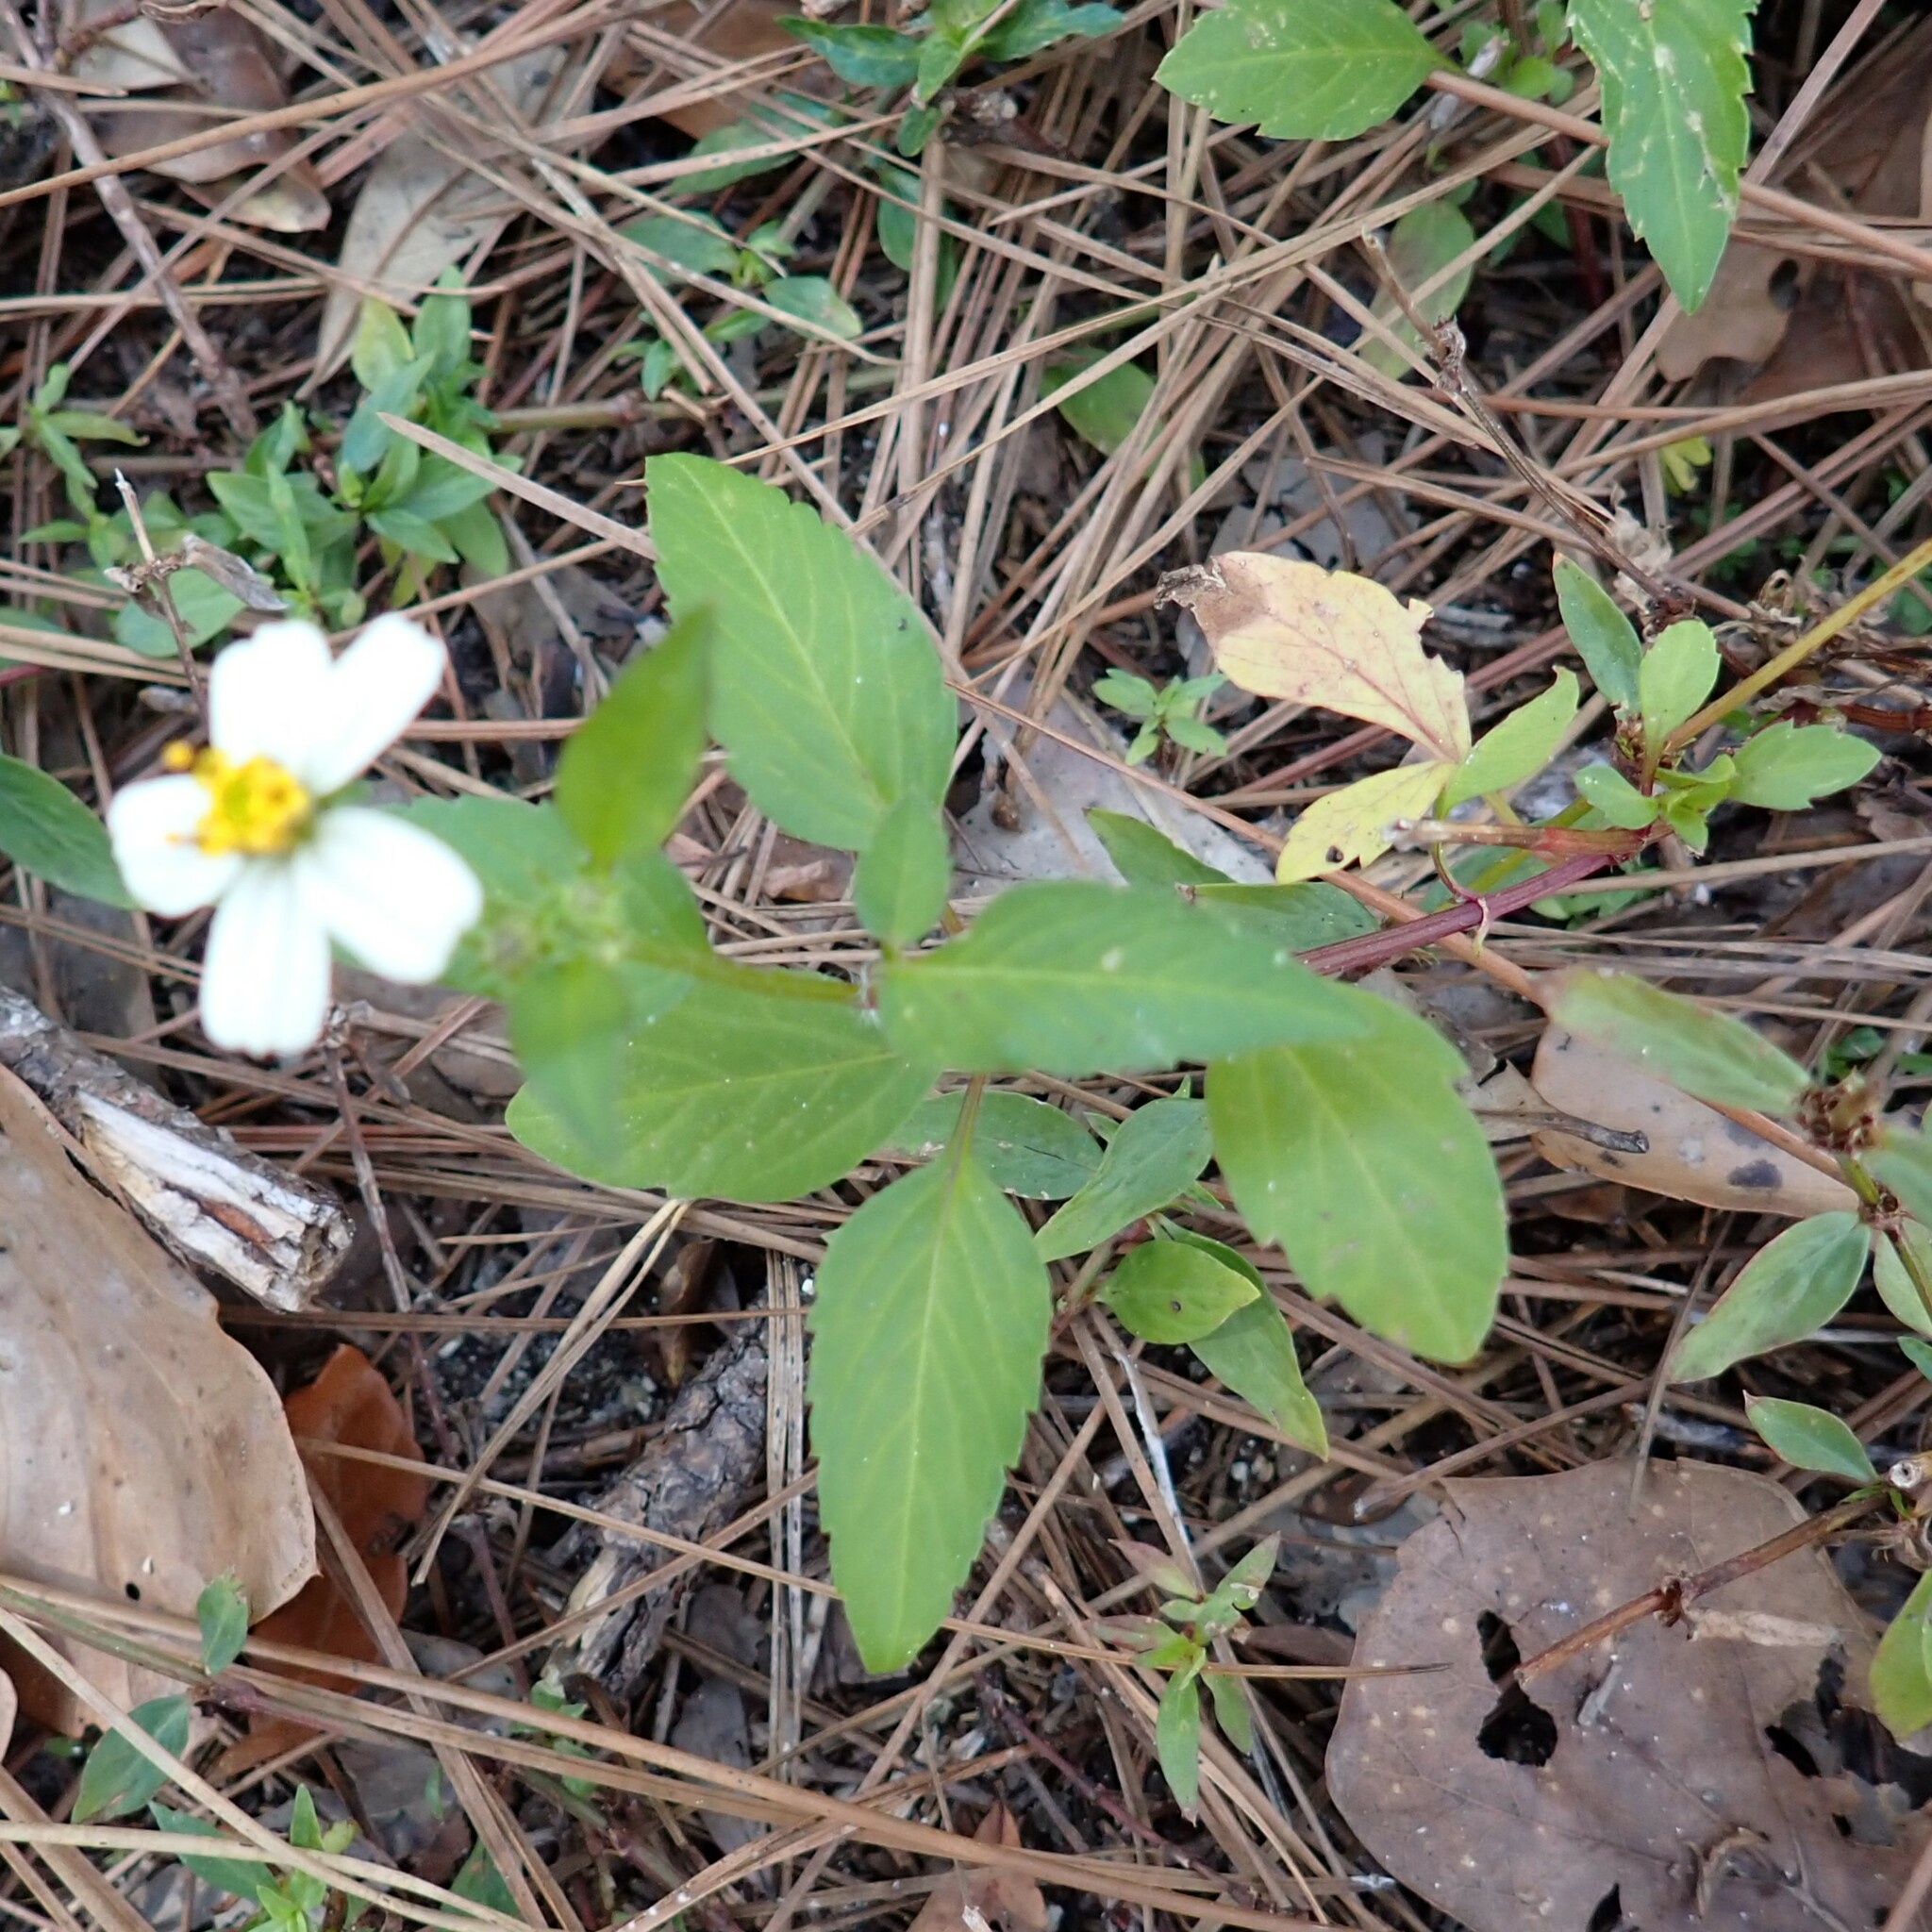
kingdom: Plantae
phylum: Tracheophyta
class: Magnoliopsida
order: Asterales
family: Asteraceae
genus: Bidens
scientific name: Bidens alba
